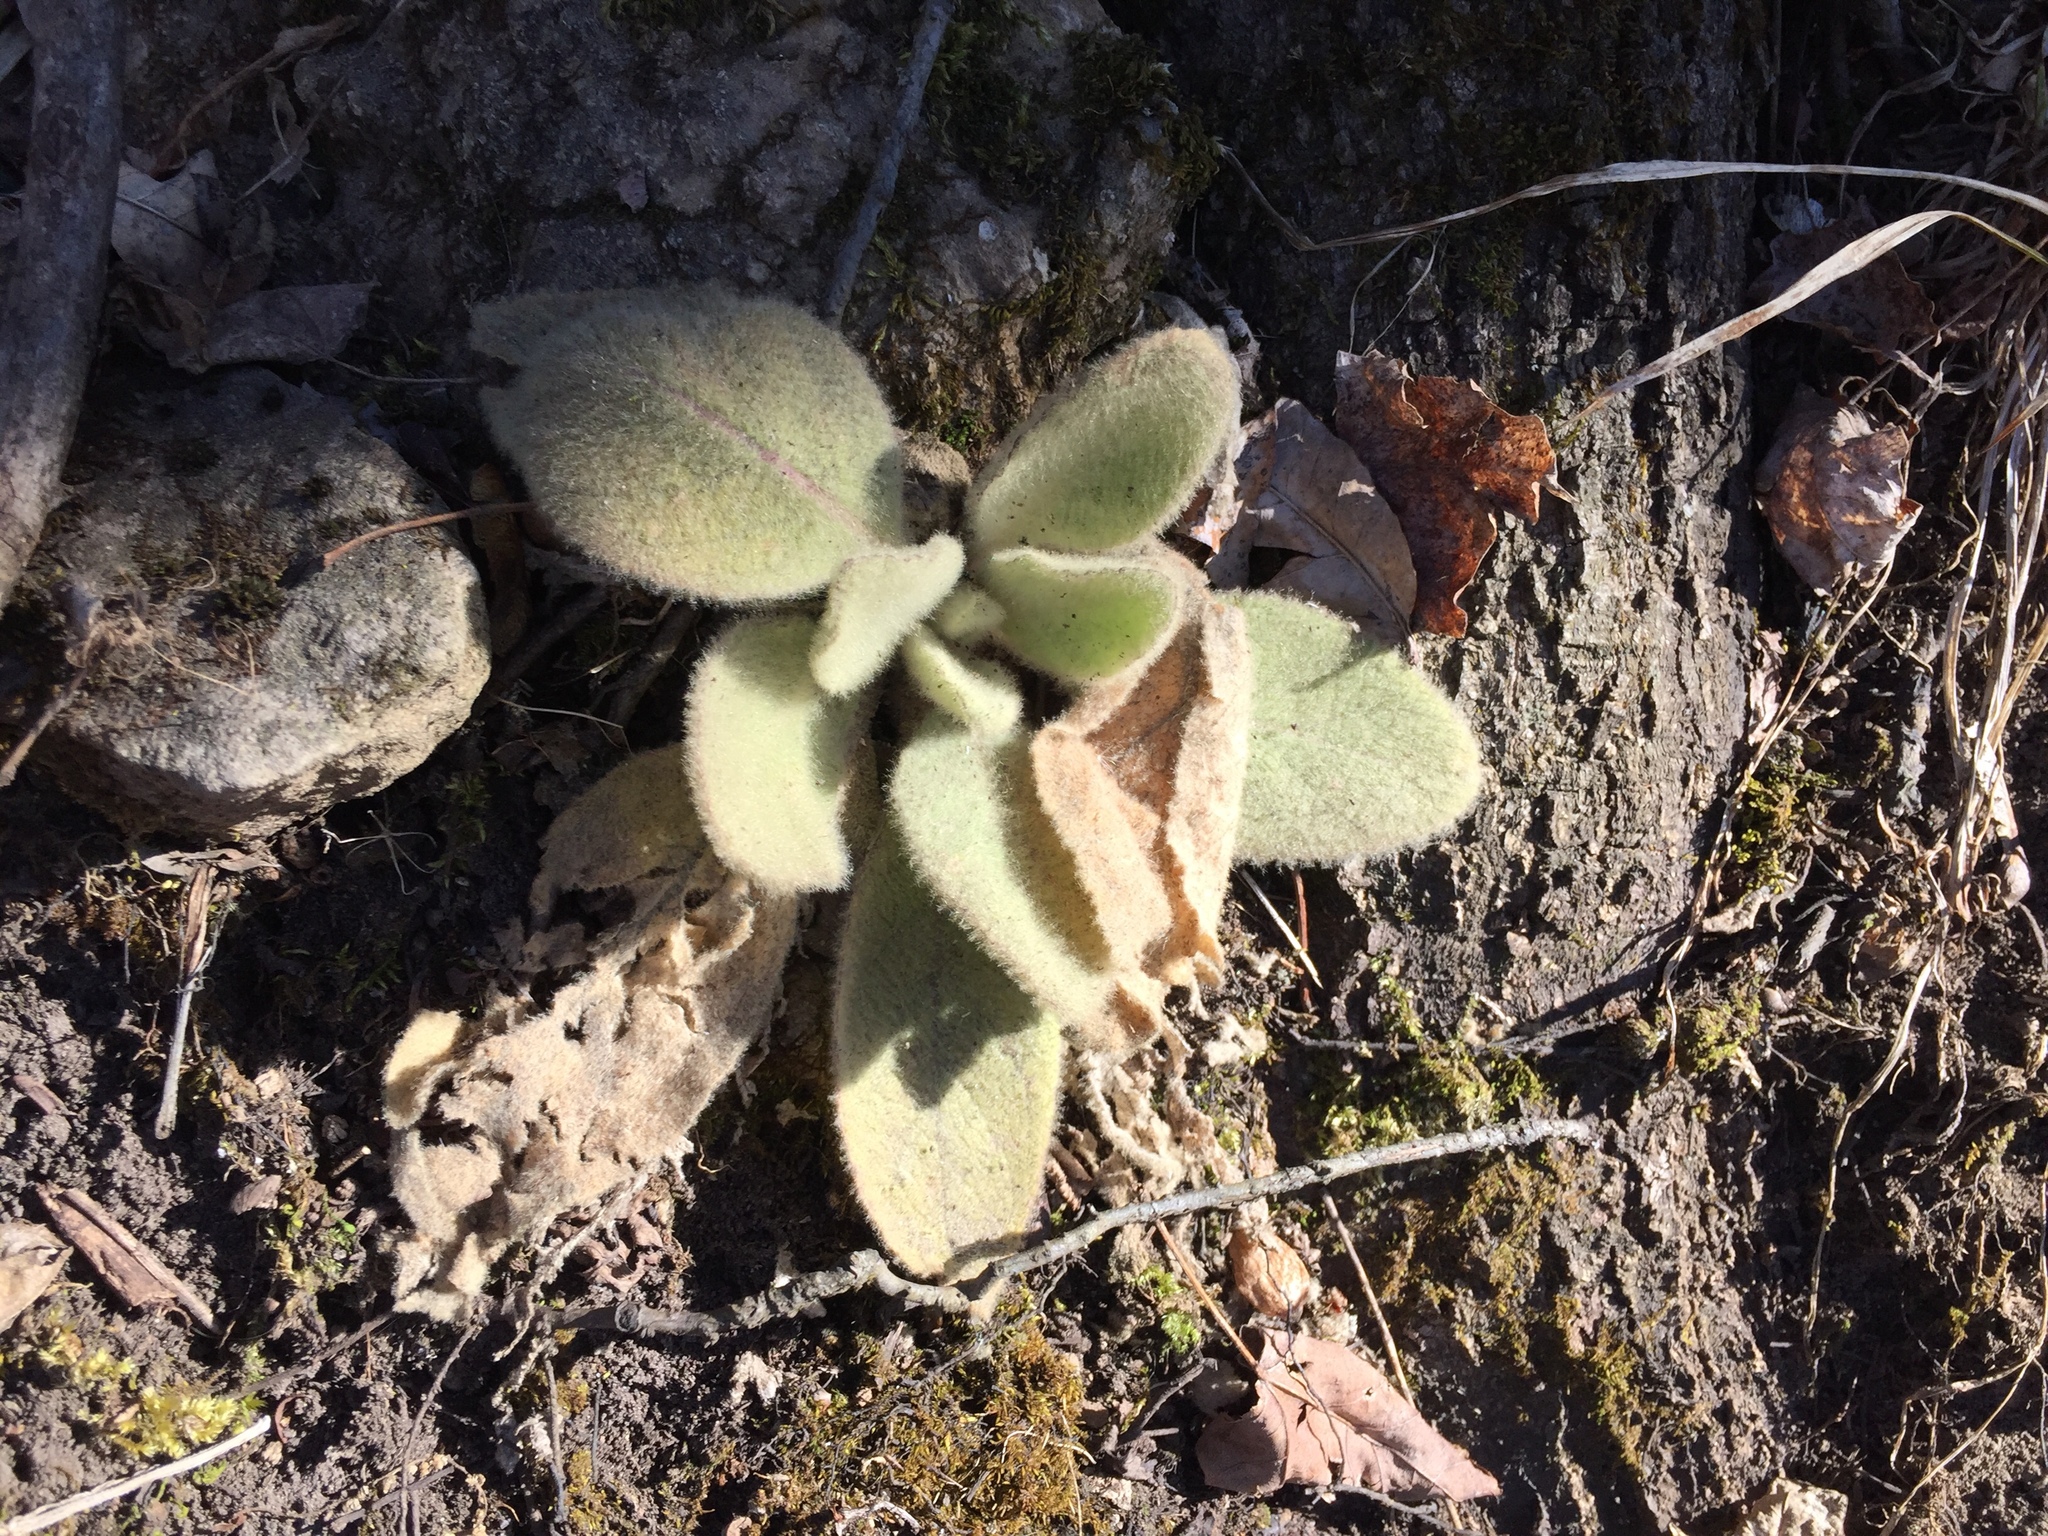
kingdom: Plantae
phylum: Tracheophyta
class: Magnoliopsida
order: Lamiales
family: Scrophulariaceae
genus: Verbascum
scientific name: Verbascum thapsus
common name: Common mullein
